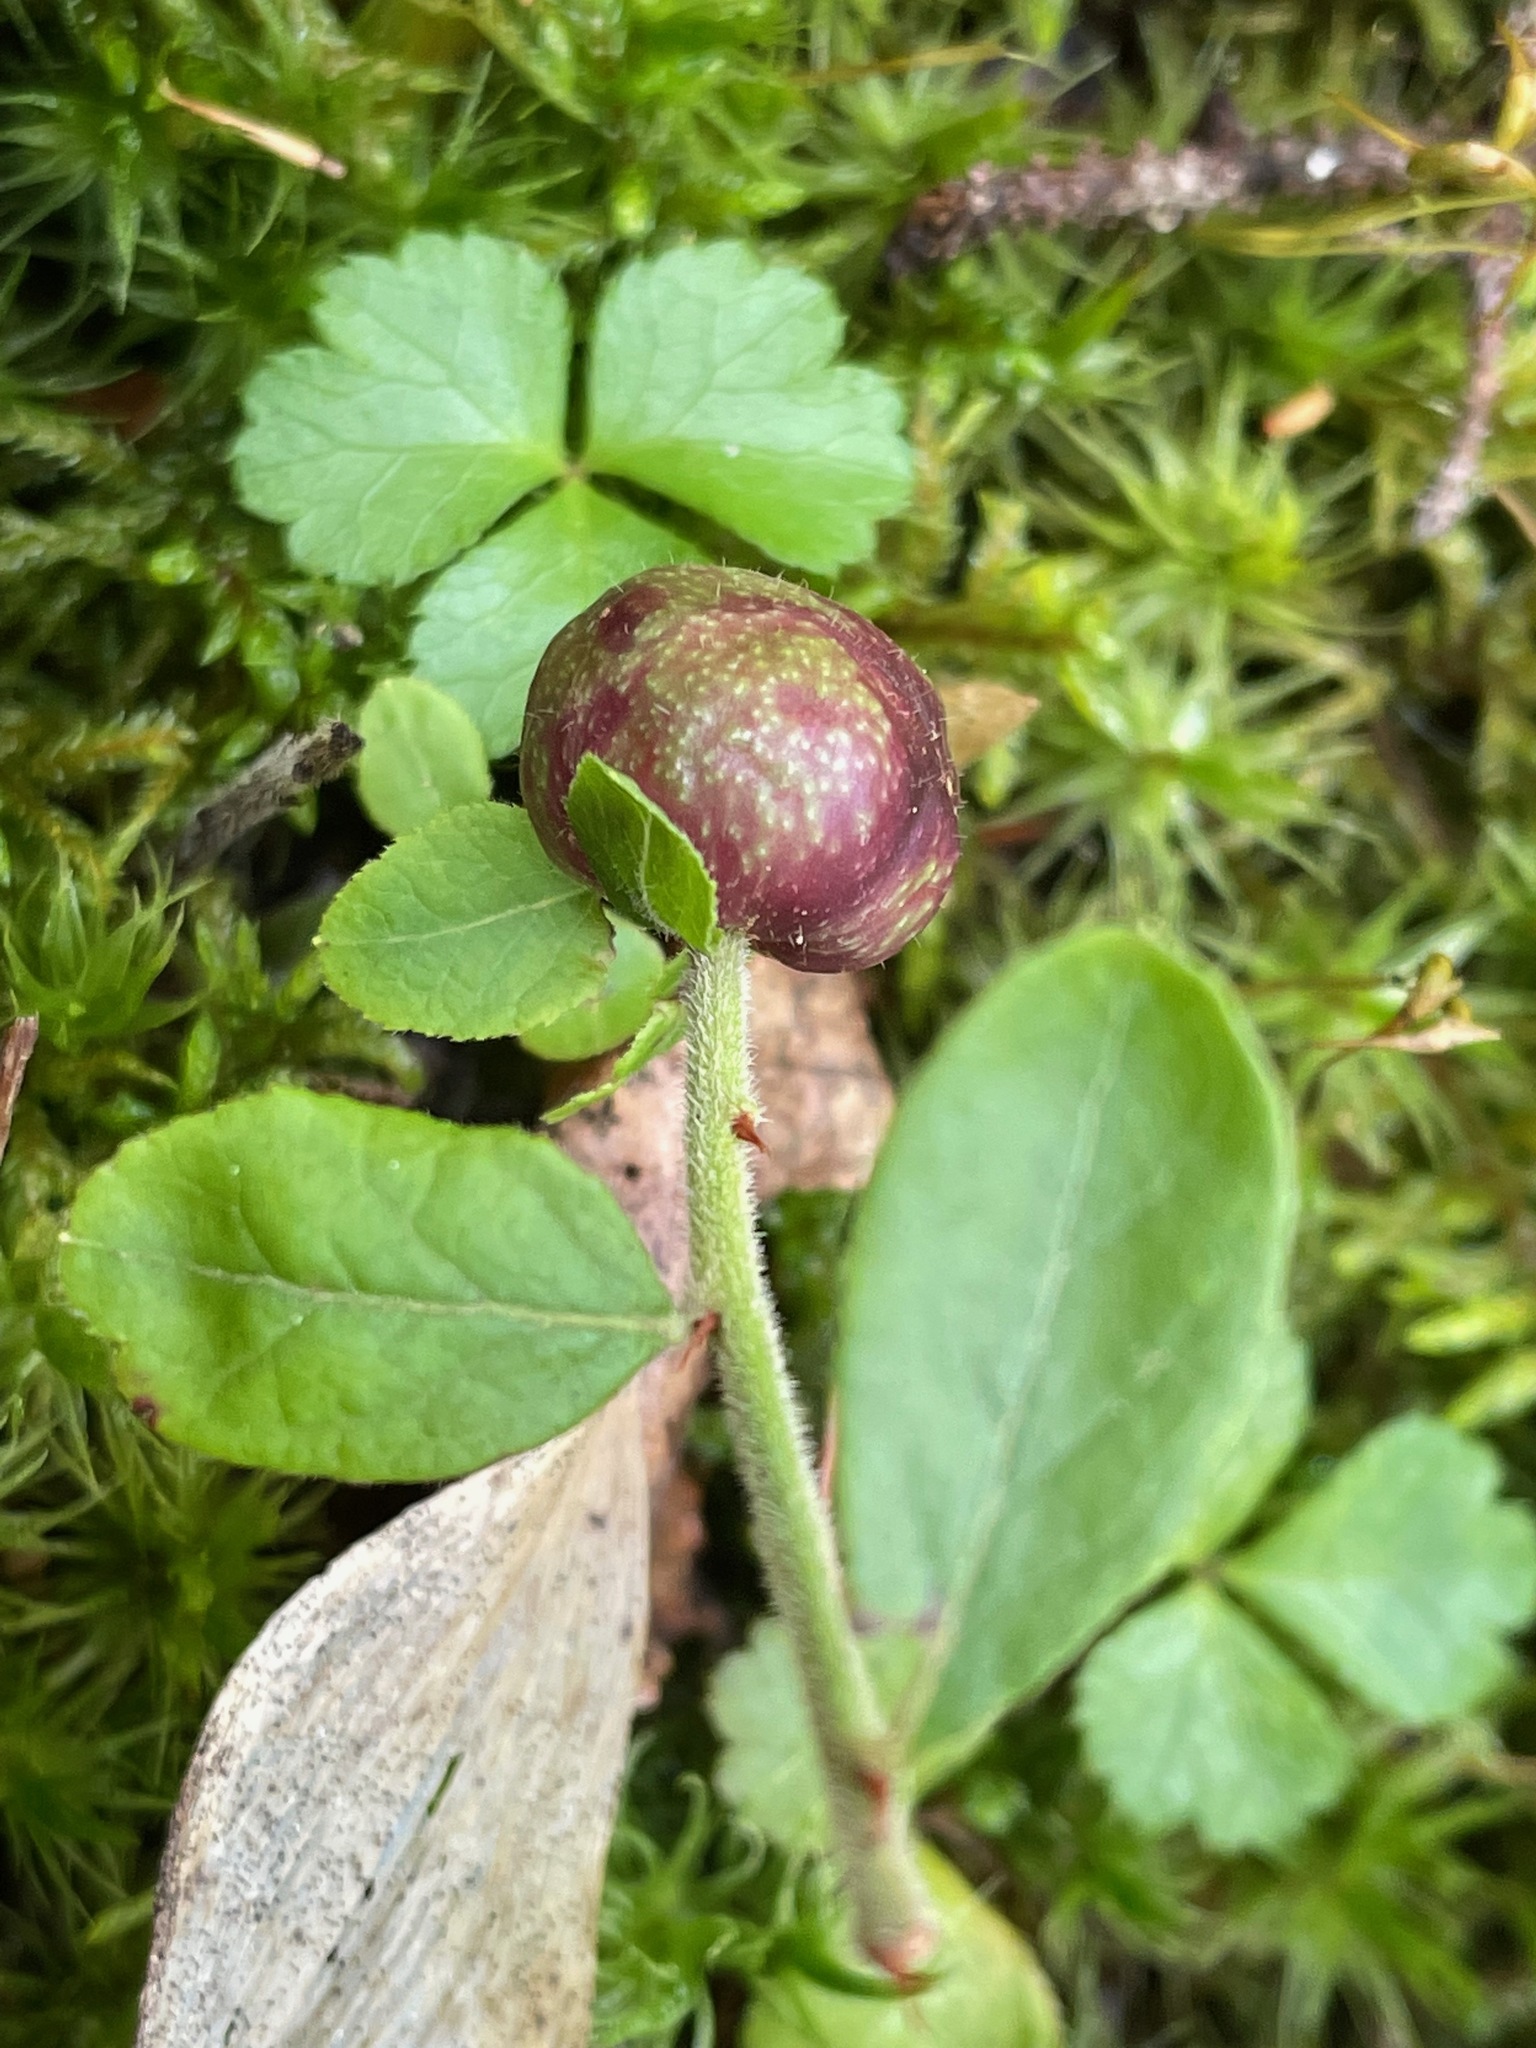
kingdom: Plantae
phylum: Tracheophyta
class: Magnoliopsida
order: Ericales
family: Ericaceae
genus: Vaccinium
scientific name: Vaccinium myrtilloides
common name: Canada blueberry
